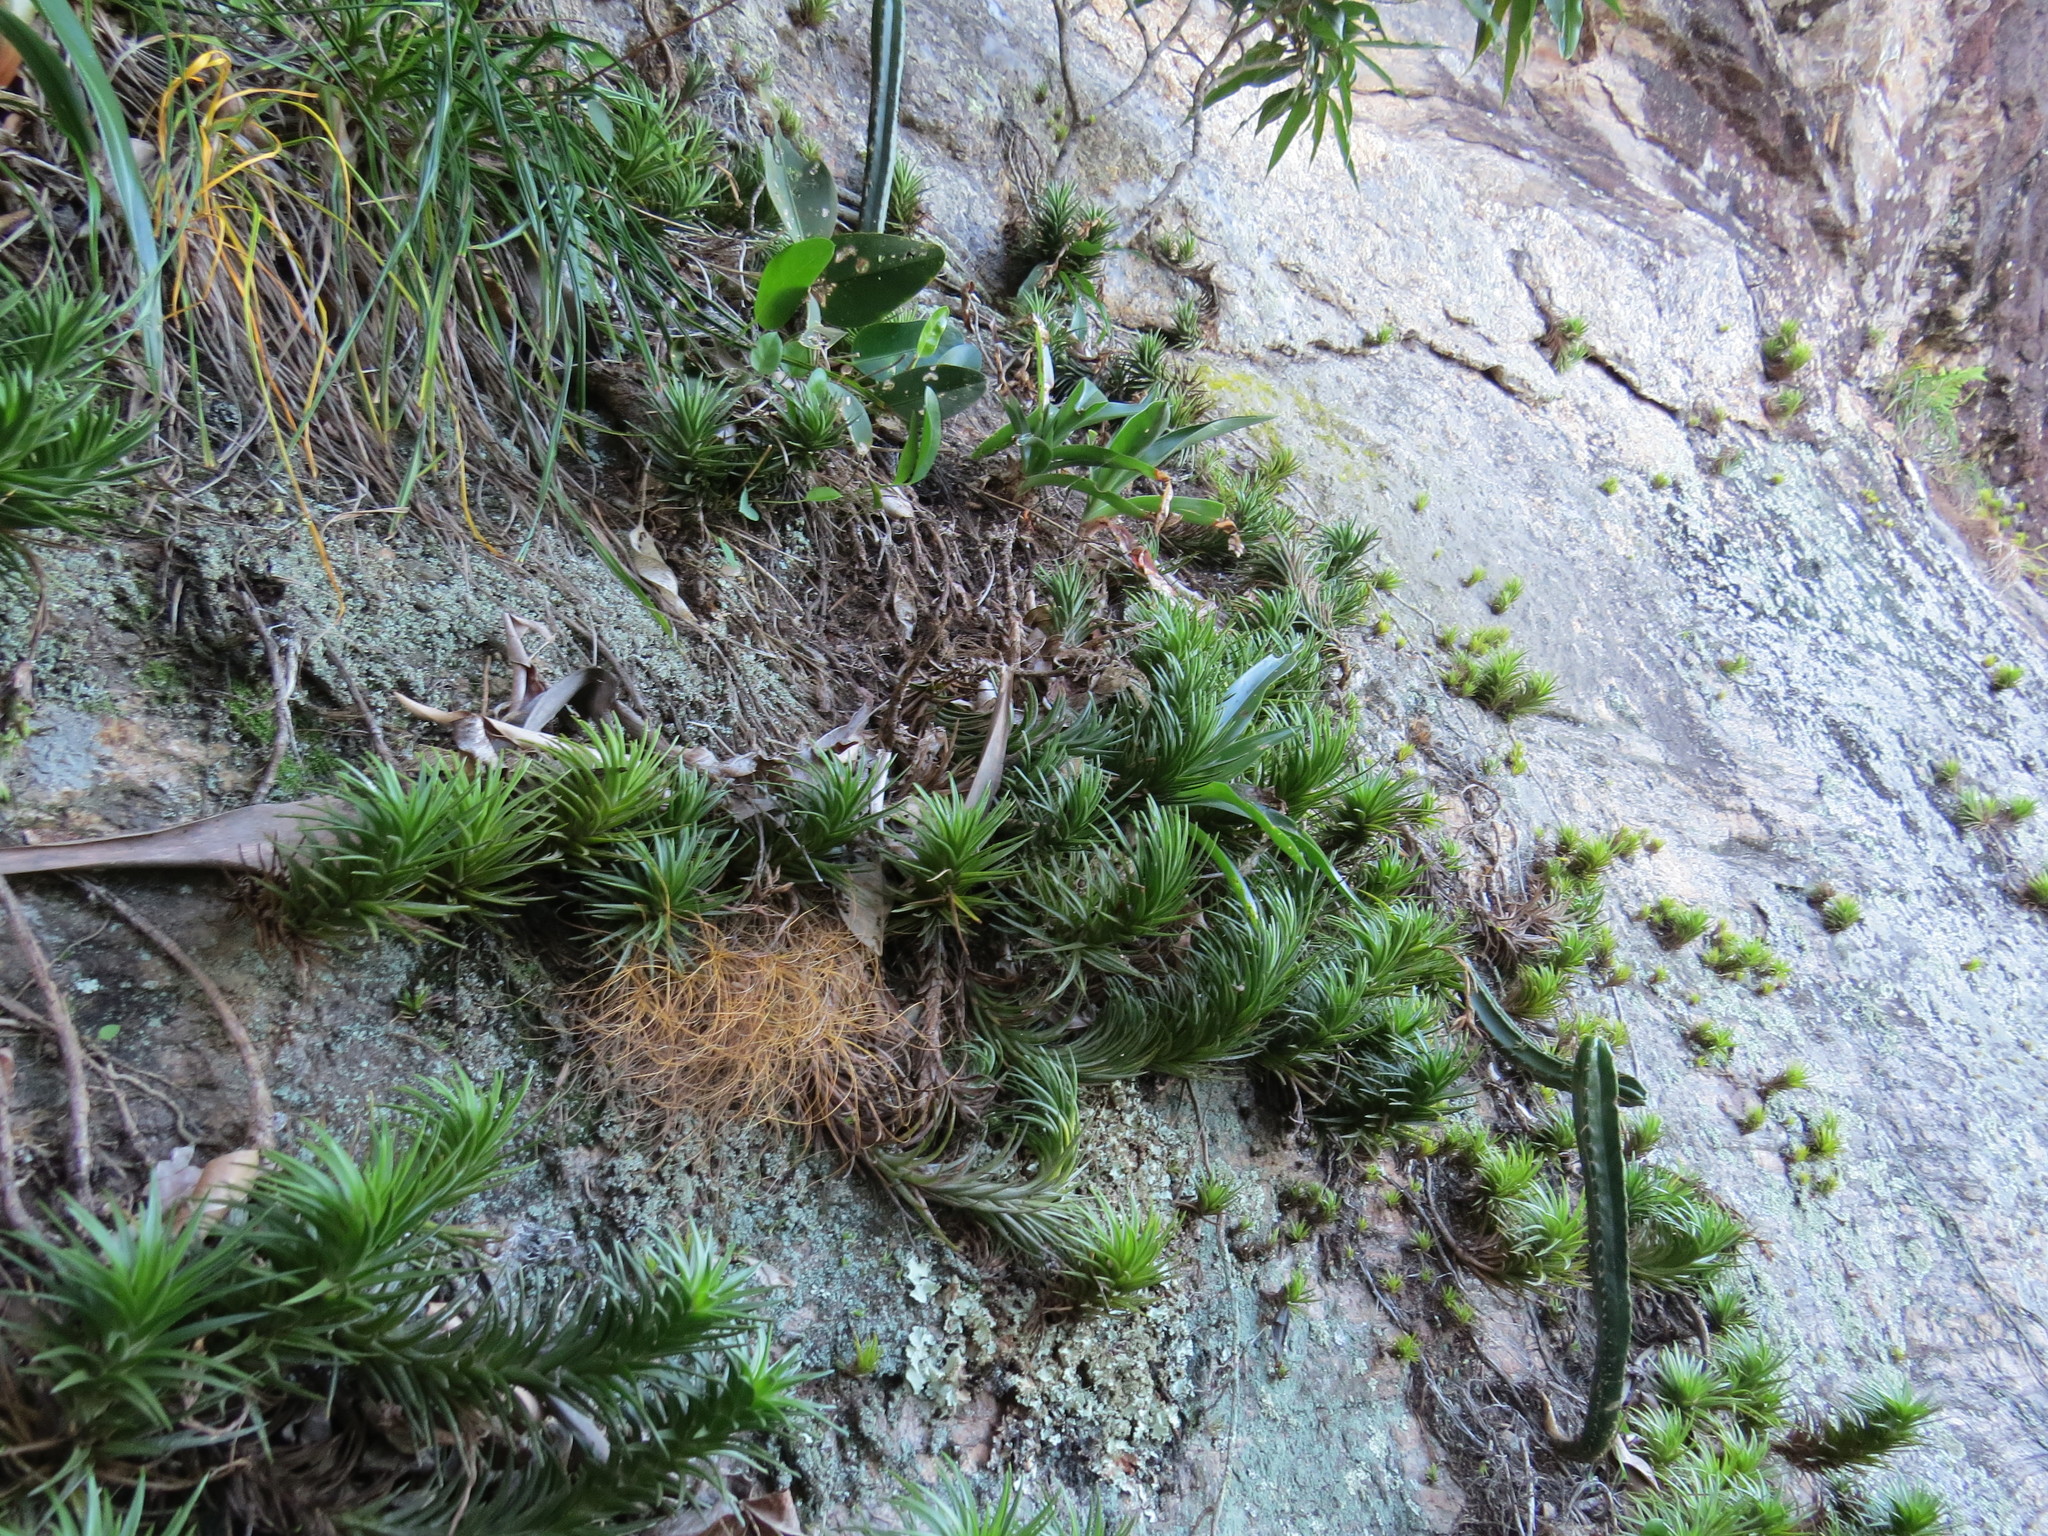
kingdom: Plantae
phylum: Tracheophyta
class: Liliopsida
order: Poales
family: Bromeliaceae
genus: Tillandsia
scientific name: Tillandsia araujei
